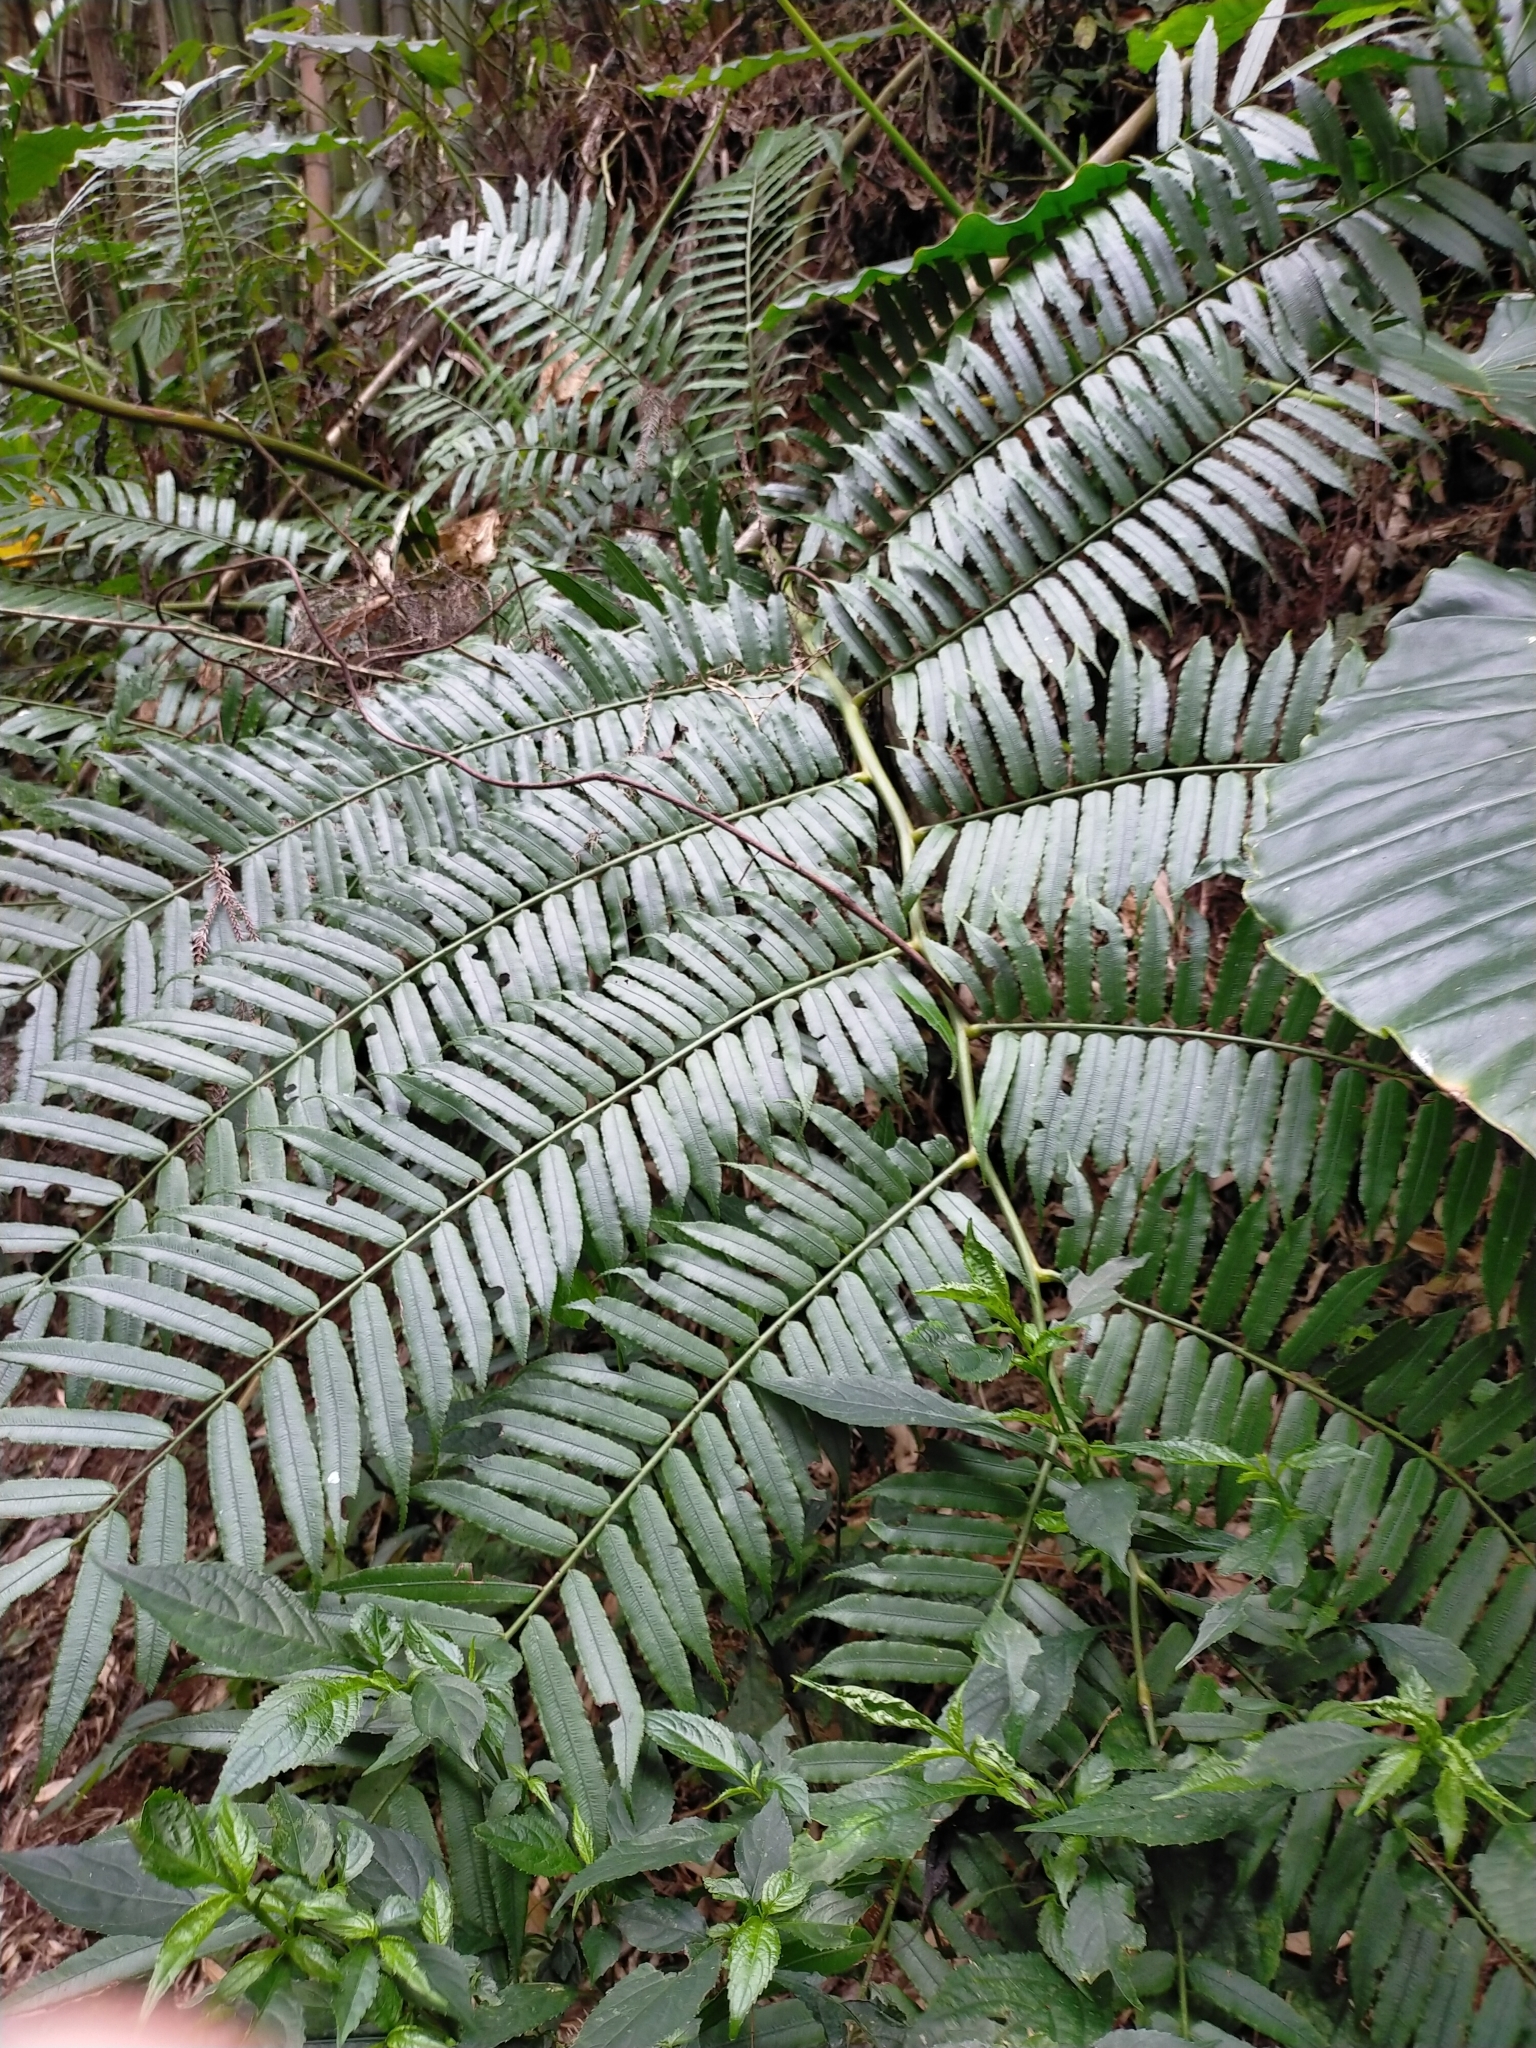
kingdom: Plantae
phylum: Tracheophyta
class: Polypodiopsida
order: Marattiales
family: Marattiaceae
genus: Angiopteris
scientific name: Angiopteris lygodiifolia
